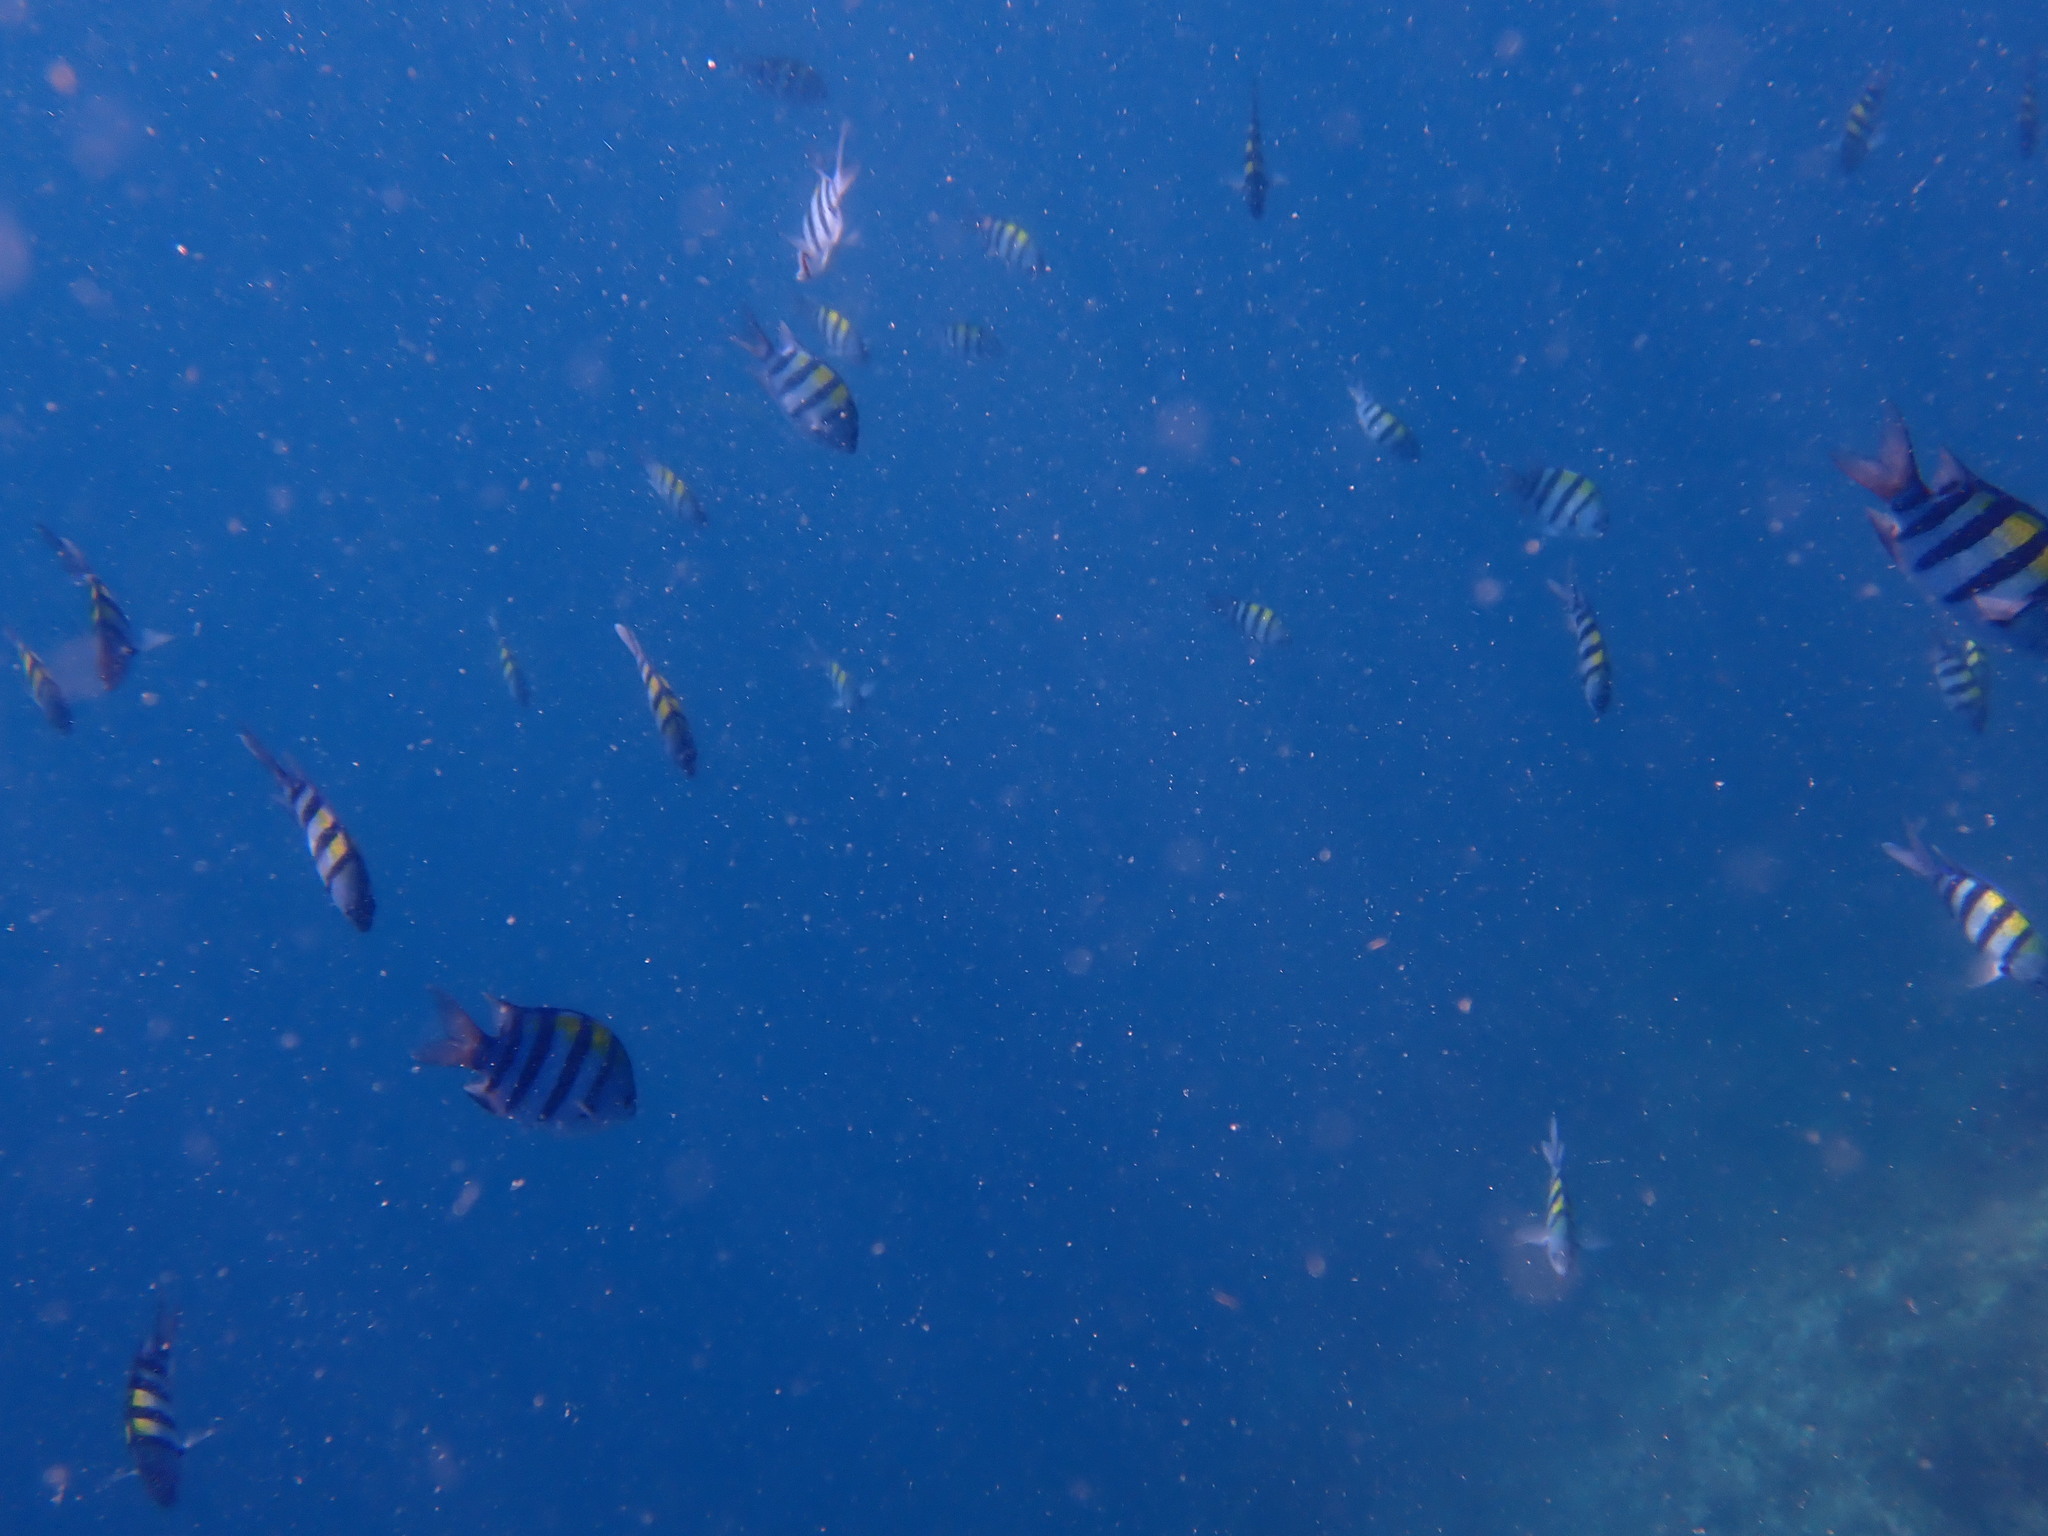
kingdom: Animalia
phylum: Chordata
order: Perciformes
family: Pomacentridae
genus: Abudefduf
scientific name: Abudefduf vaigiensis
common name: Indo-pacific sergeant
